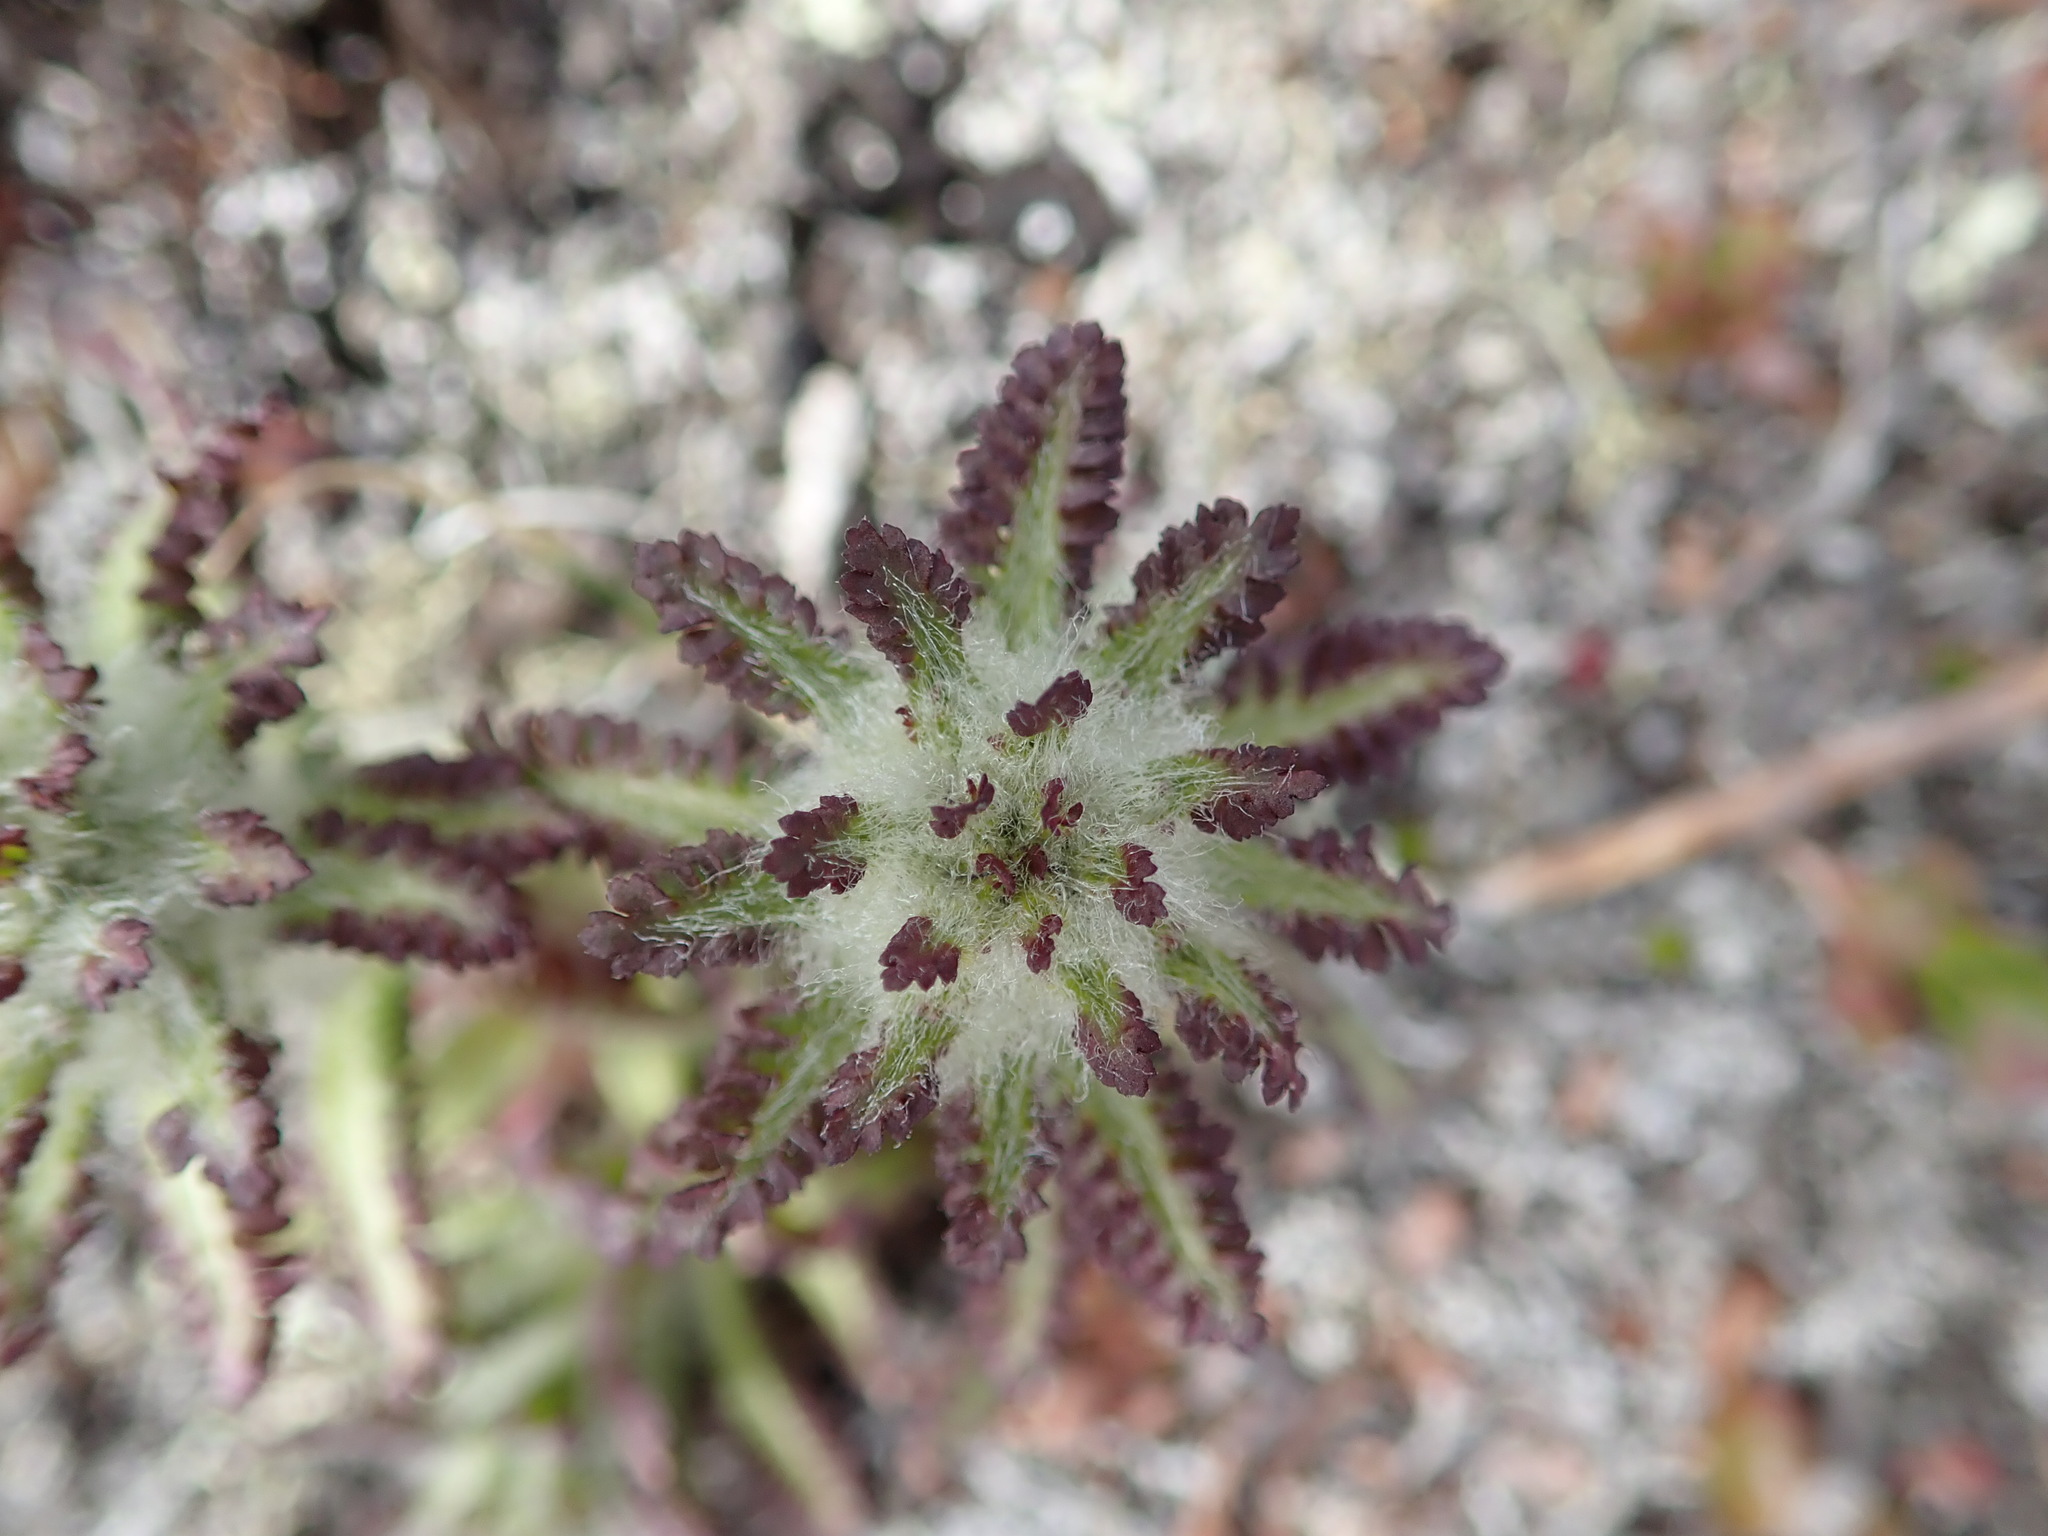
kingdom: Plantae
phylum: Tracheophyta
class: Magnoliopsida
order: Lamiales
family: Orobanchaceae
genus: Pedicularis
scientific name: Pedicularis lanata
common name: Woolly lousewort
